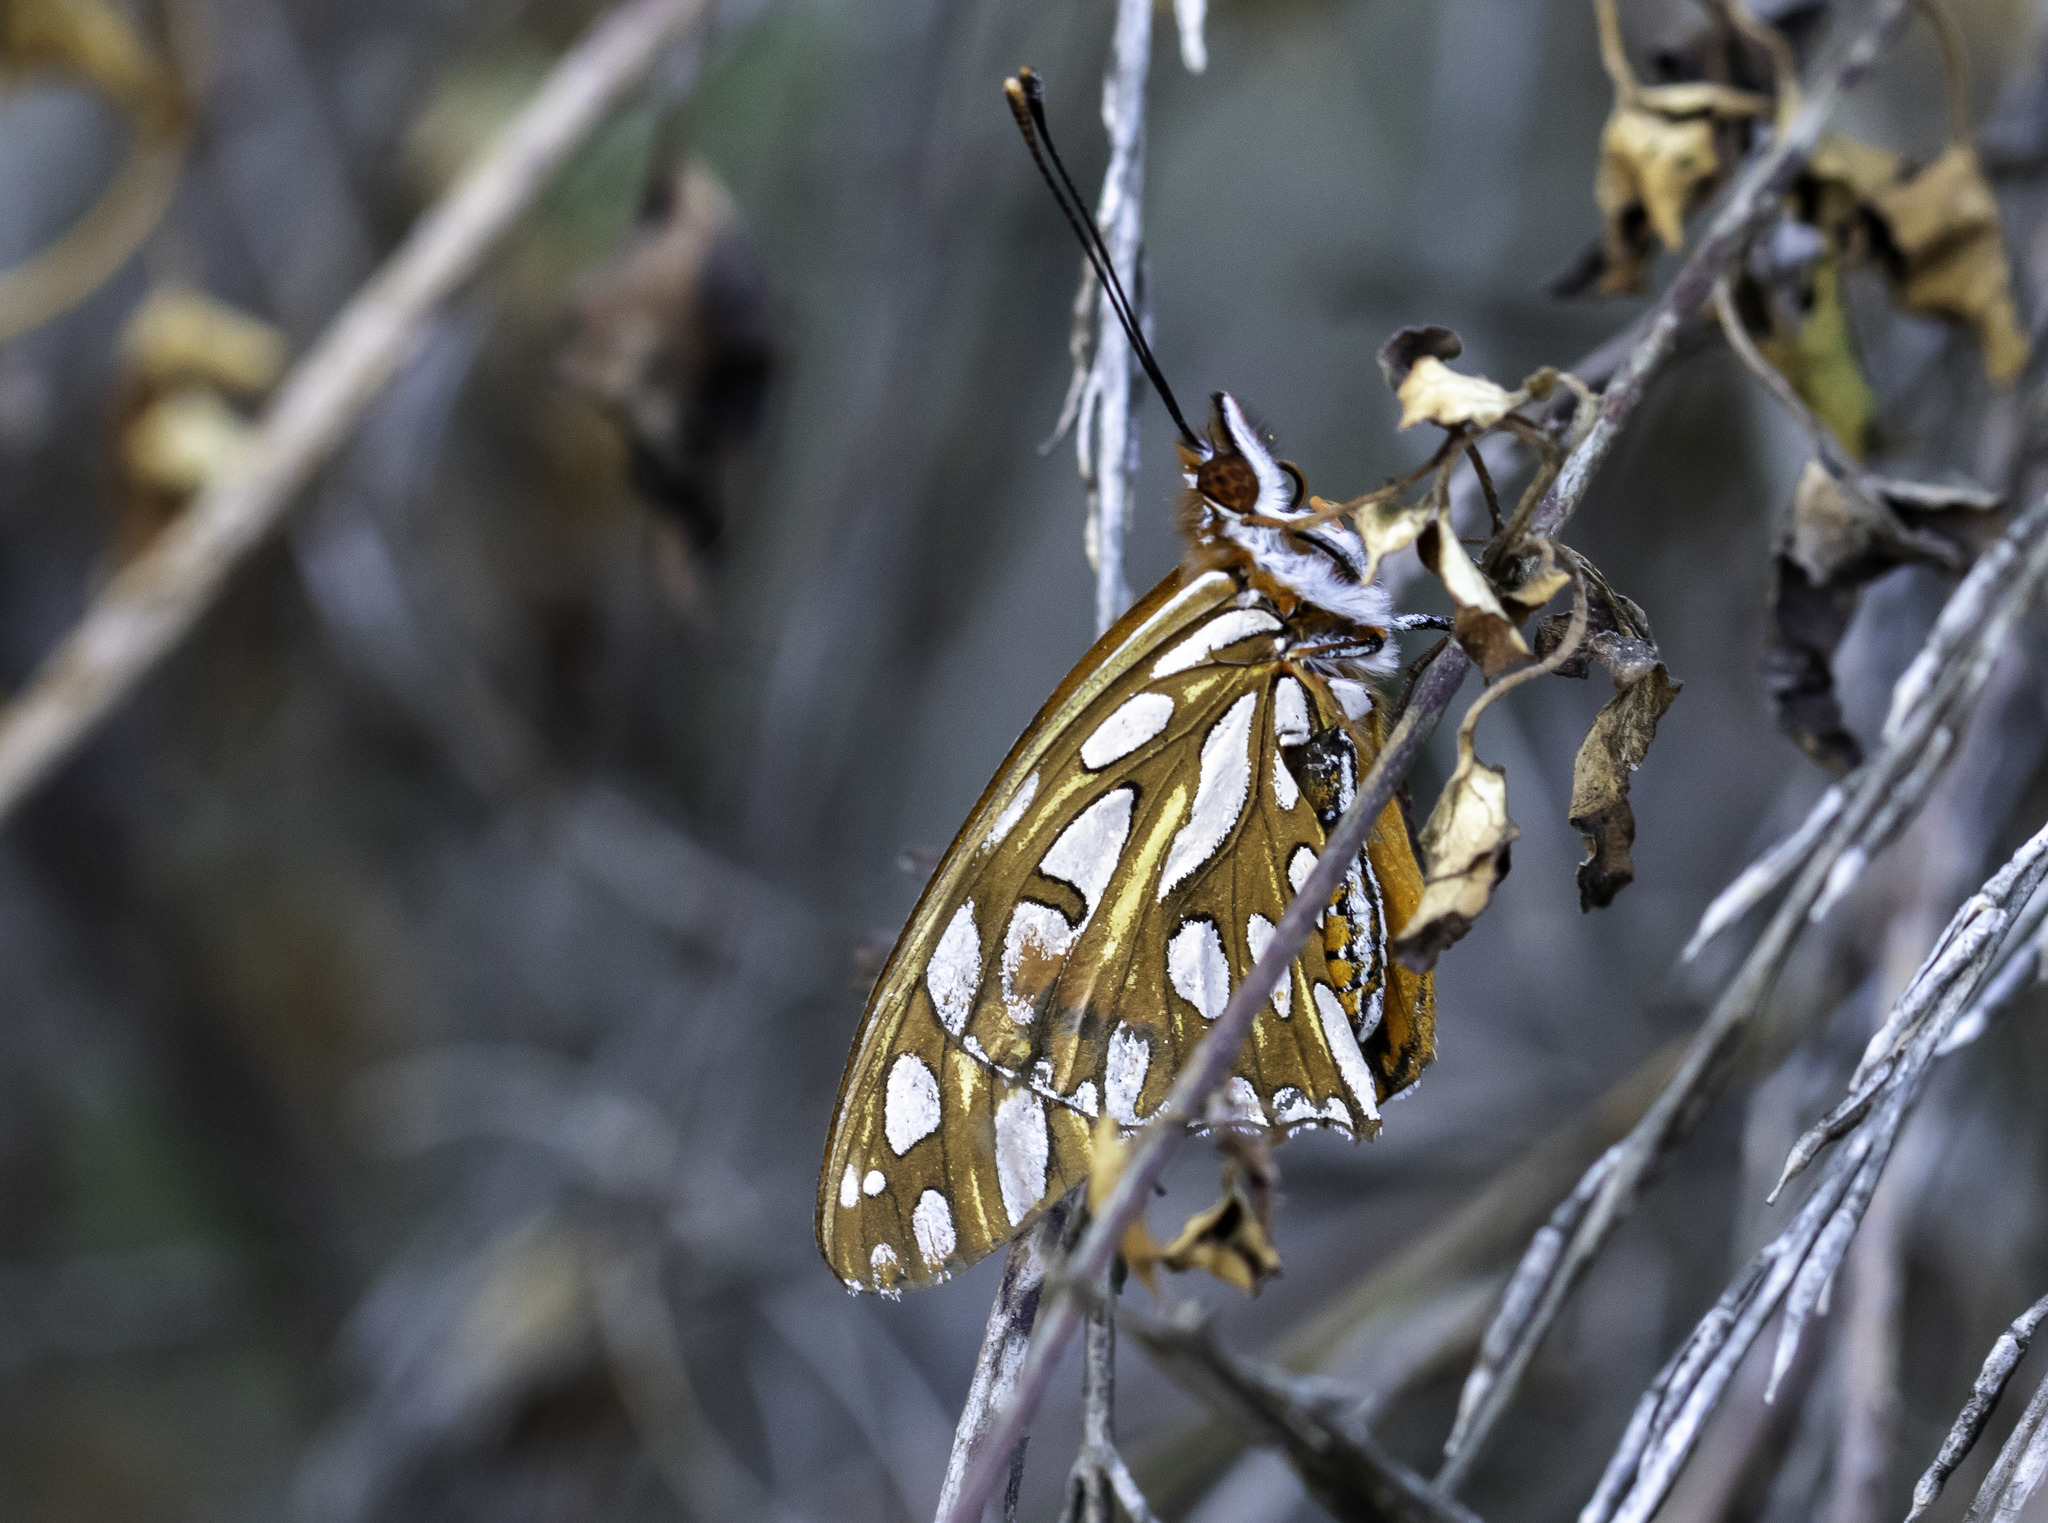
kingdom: Animalia
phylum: Arthropoda
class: Insecta
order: Lepidoptera
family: Nymphalidae
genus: Dione
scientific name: Dione vanillae
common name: Gulf fritillary
